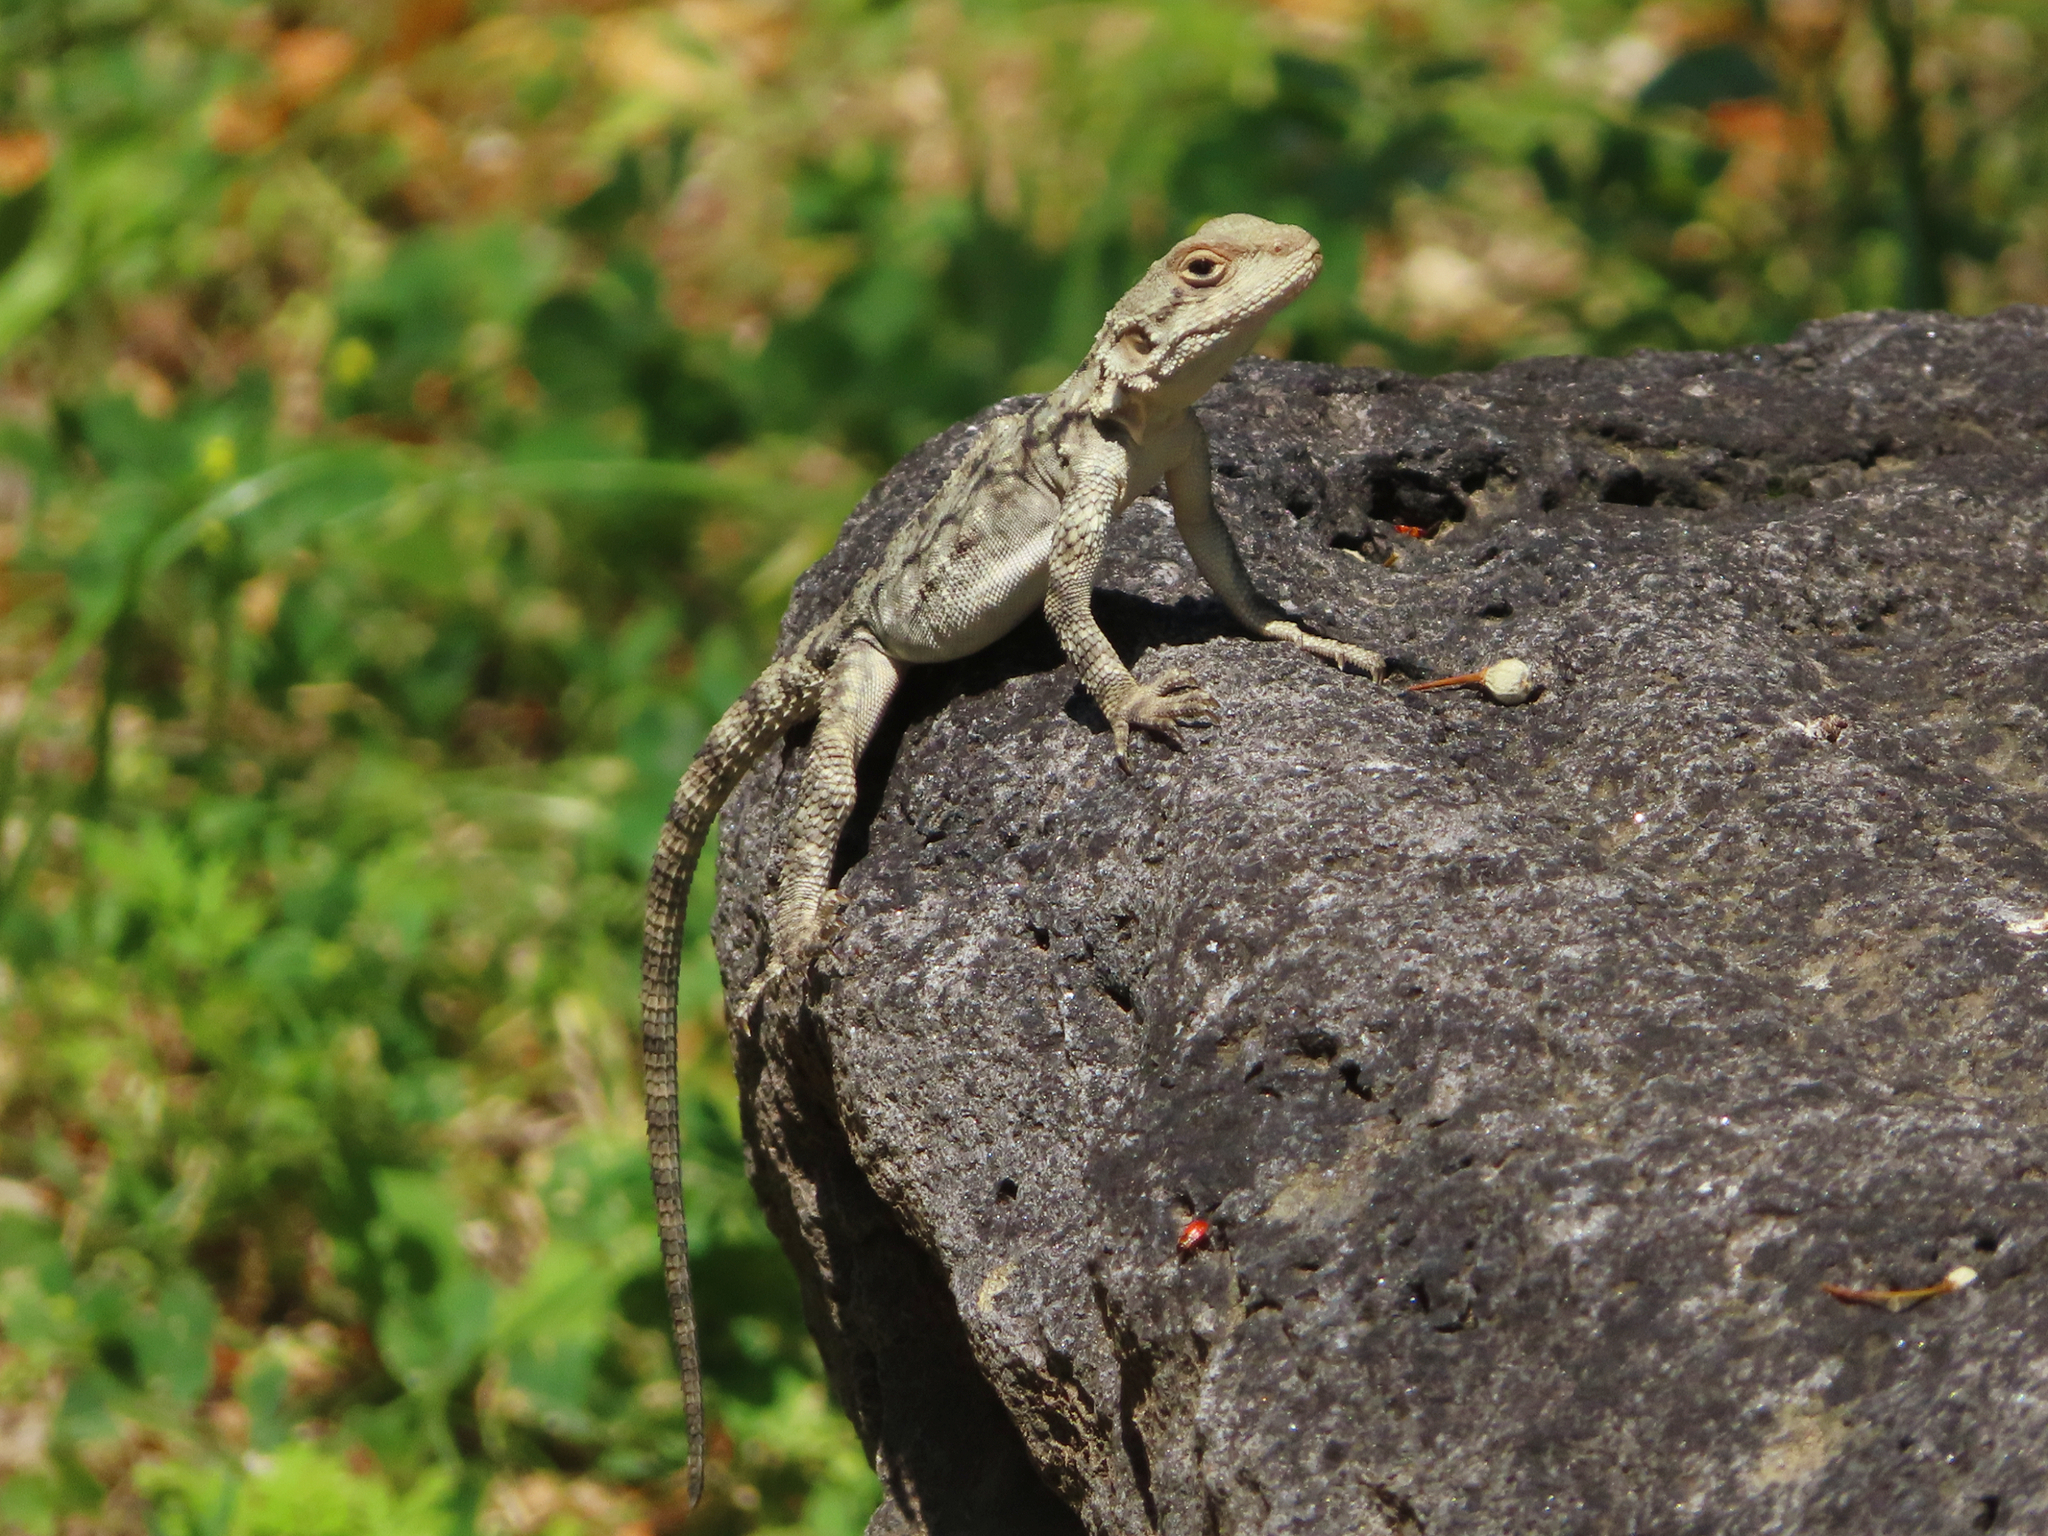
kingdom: Animalia
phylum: Chordata
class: Squamata
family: Agamidae
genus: Paralaudakia
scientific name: Paralaudakia caucasia
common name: Caucasian agama
